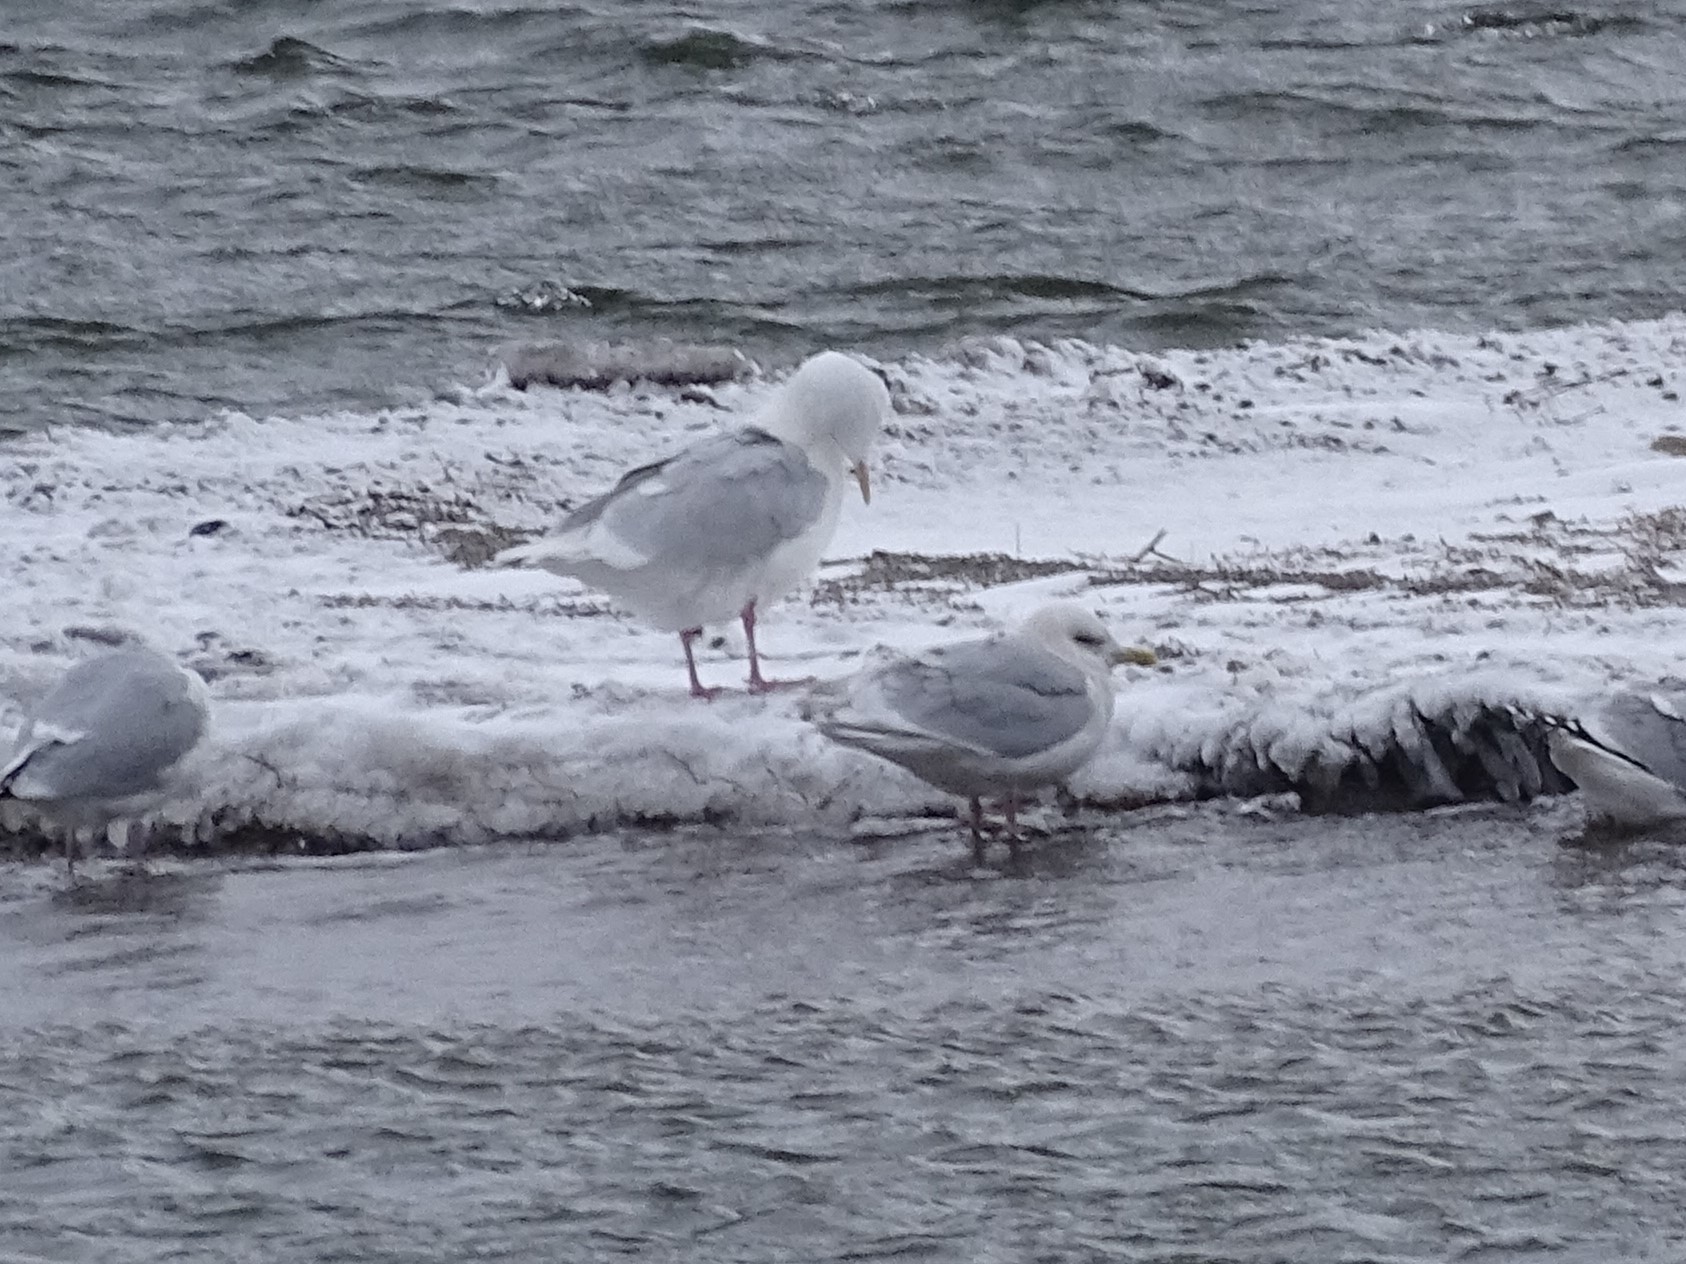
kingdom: Animalia
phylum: Chordata
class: Aves
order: Charadriiformes
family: Laridae
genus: Larus
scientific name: Larus glaucoides
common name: Iceland gull
